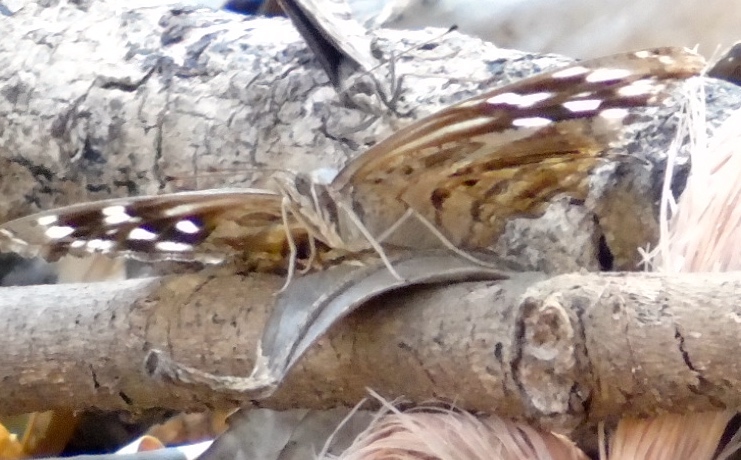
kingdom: Animalia
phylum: Arthropoda
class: Insecta
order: Lepidoptera
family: Nymphalidae
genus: Myscelia
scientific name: Myscelia ethusa
